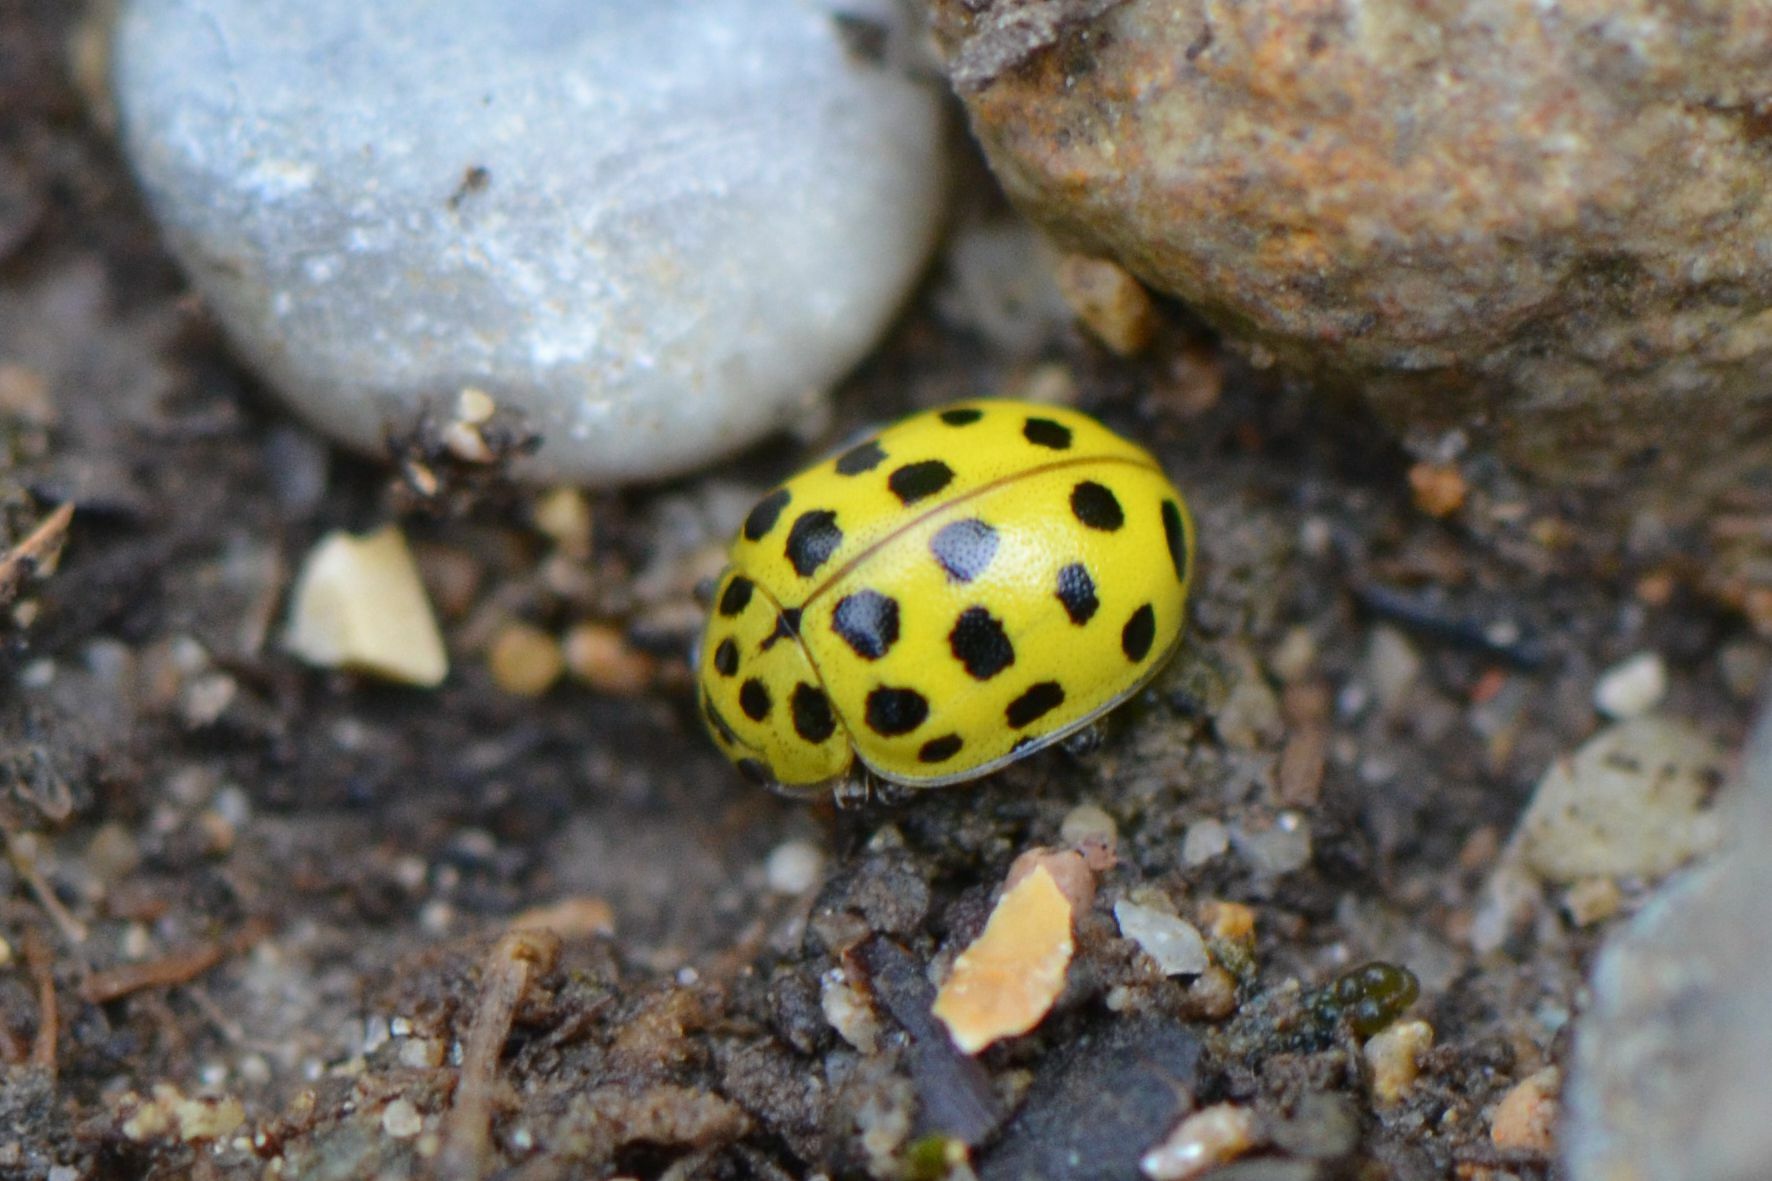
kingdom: Animalia
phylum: Arthropoda
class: Insecta
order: Coleoptera
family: Coccinellidae
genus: Psyllobora
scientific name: Psyllobora vigintiduopunctata
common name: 22-spot ladybird
